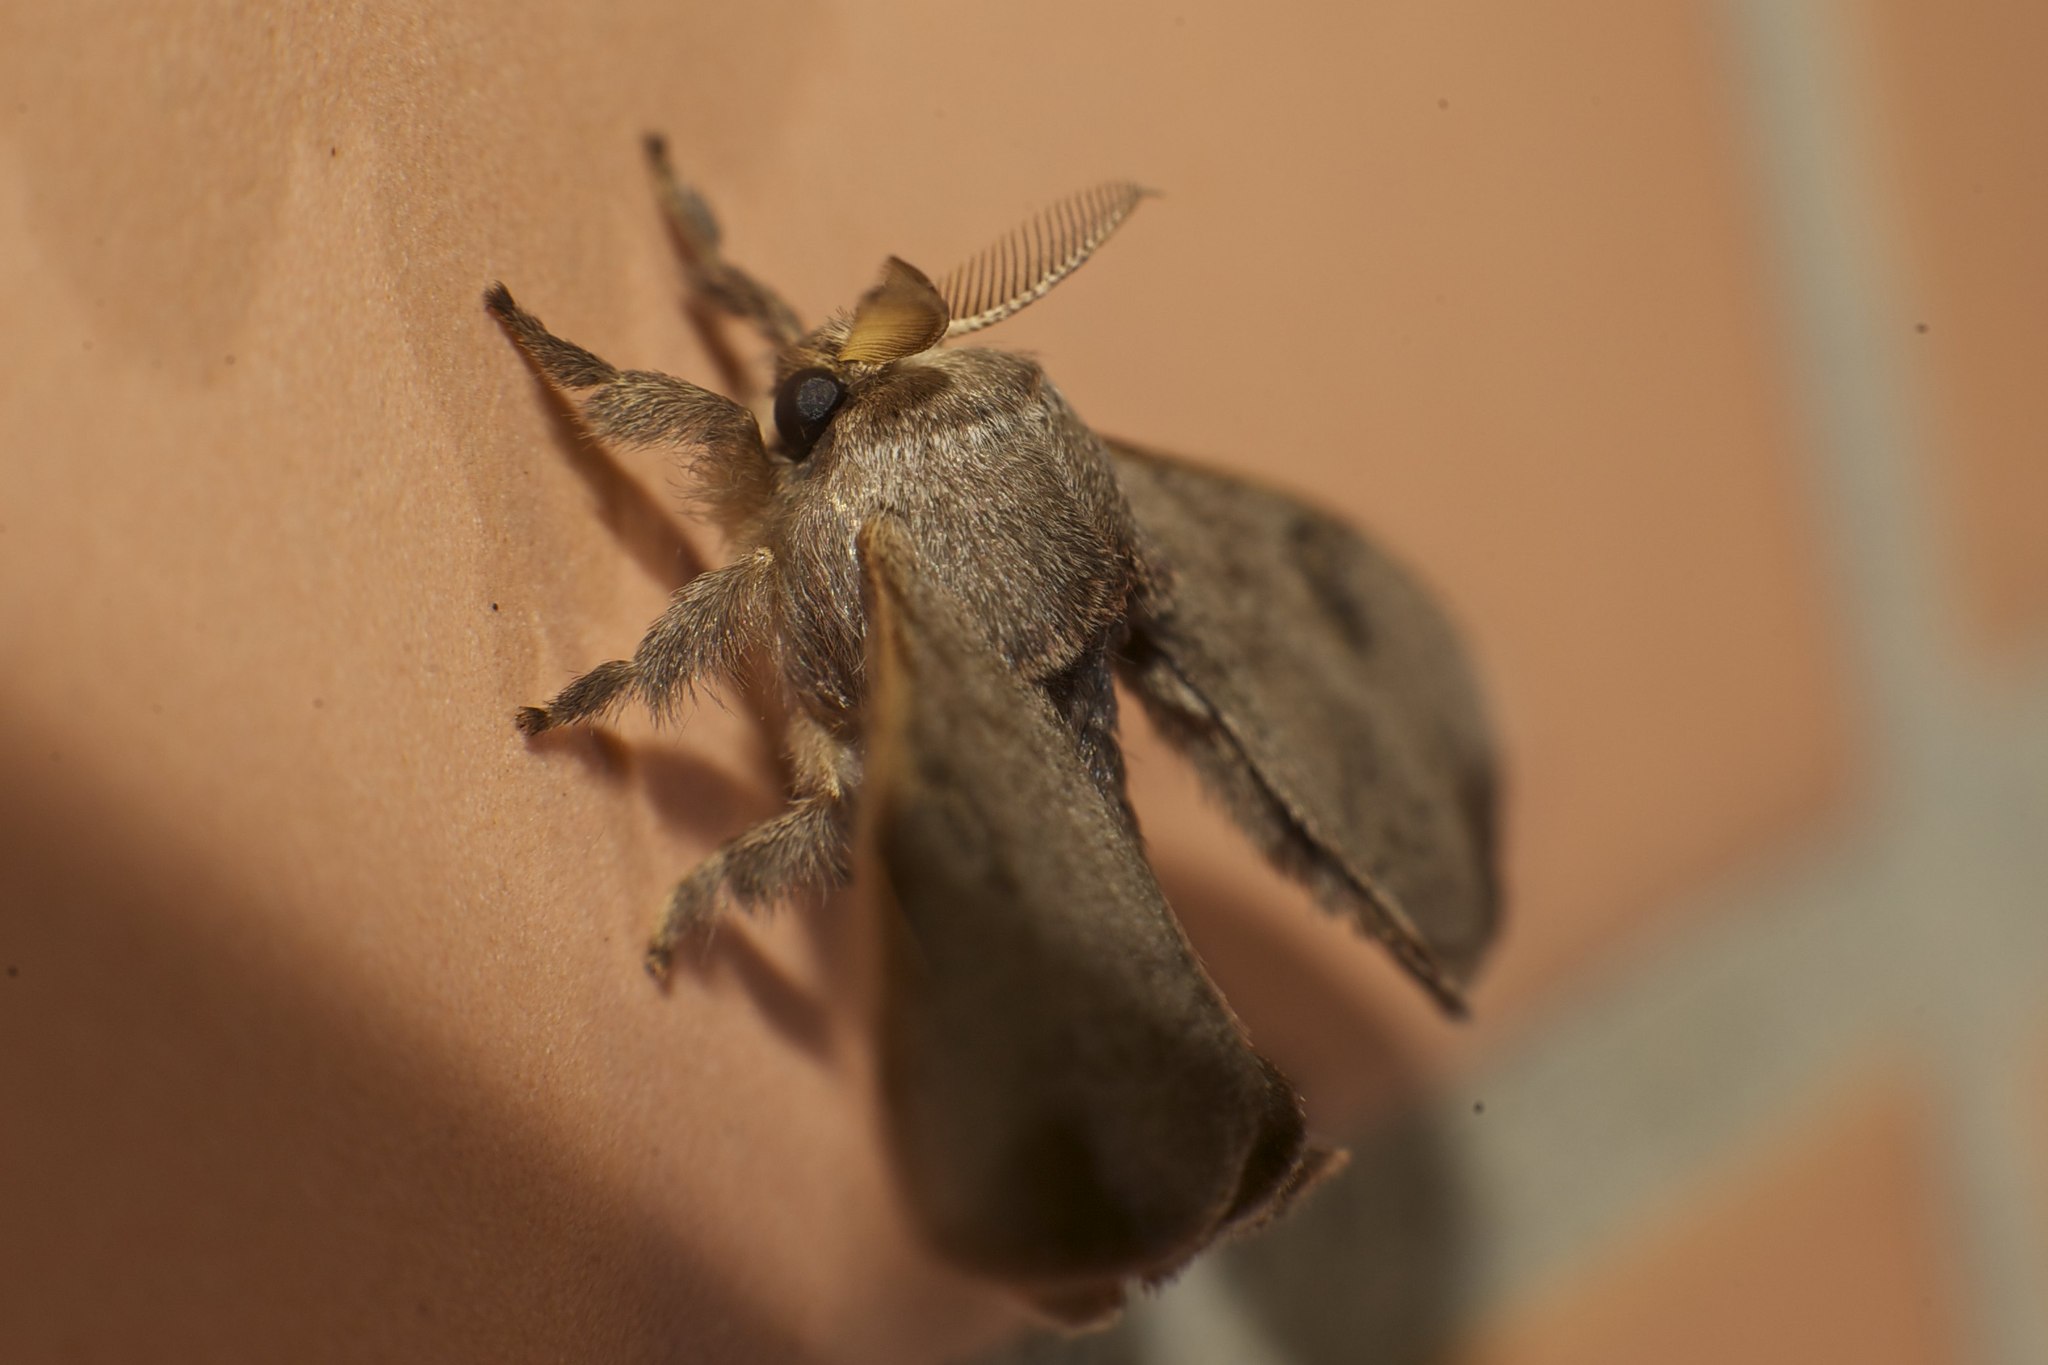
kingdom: Animalia
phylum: Arthropoda
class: Insecta
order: Lepidoptera
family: Bombycidae
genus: Trilocha
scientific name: Trilocha varians
